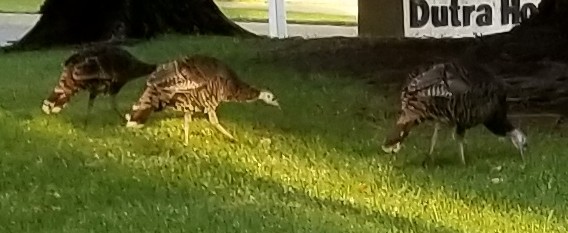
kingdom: Animalia
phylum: Chordata
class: Aves
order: Galliformes
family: Phasianidae
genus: Meleagris
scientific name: Meleagris gallopavo
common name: Wild turkey
